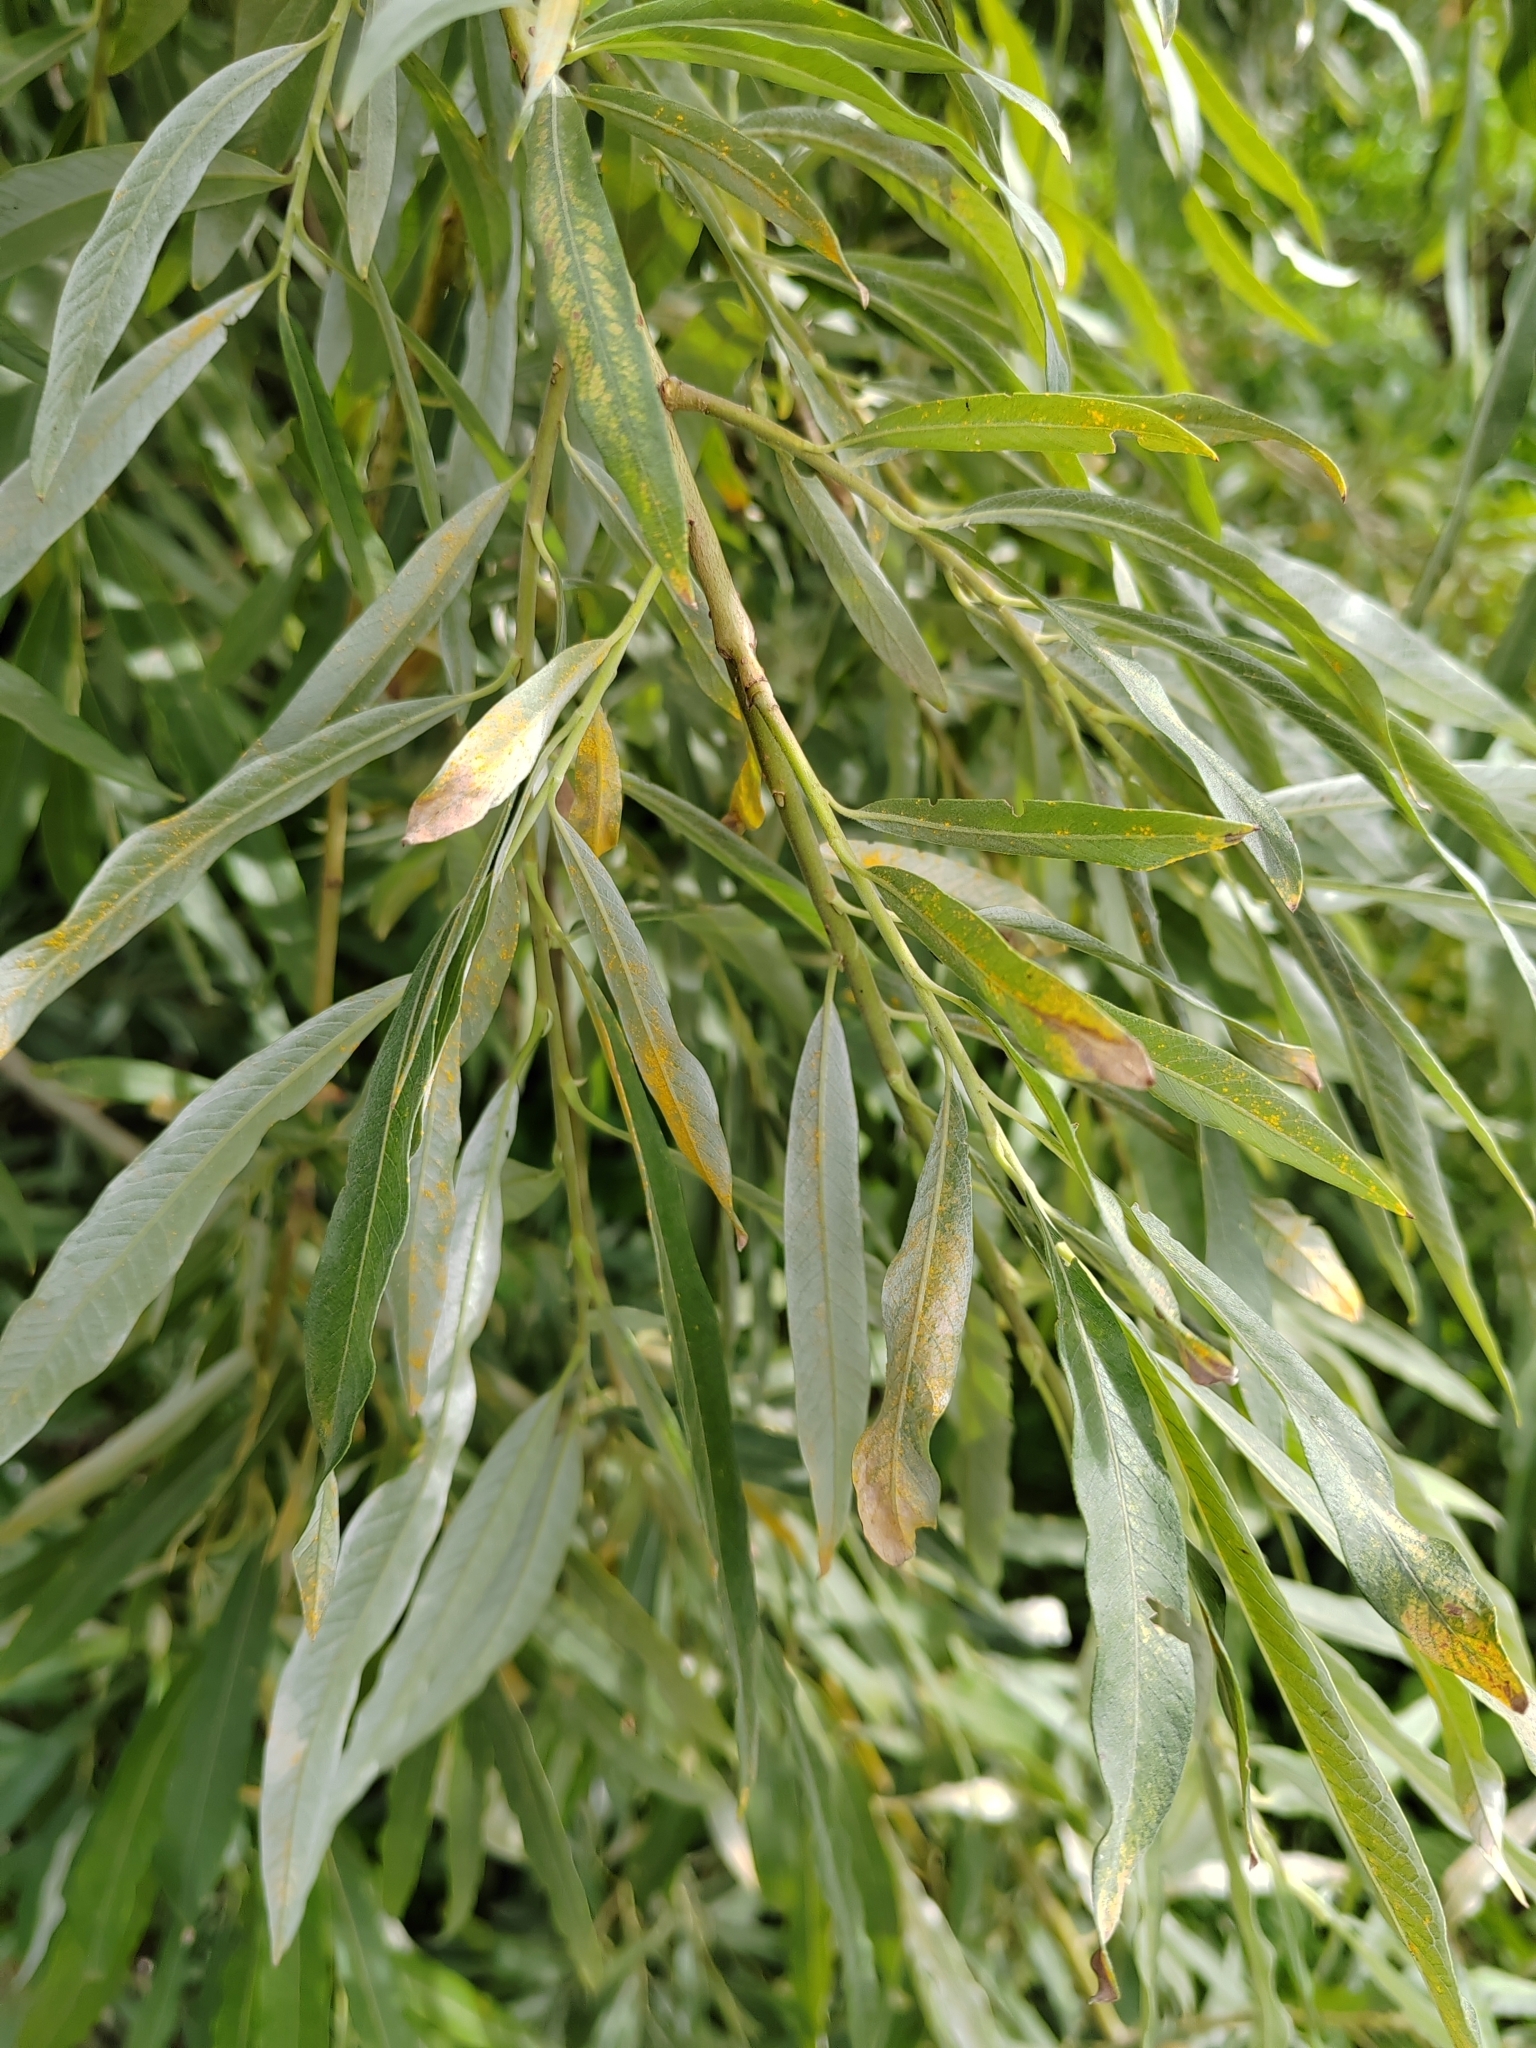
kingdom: Plantae
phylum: Tracheophyta
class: Magnoliopsida
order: Malpighiales
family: Salicaceae
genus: Salix
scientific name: Salix gmelinii
